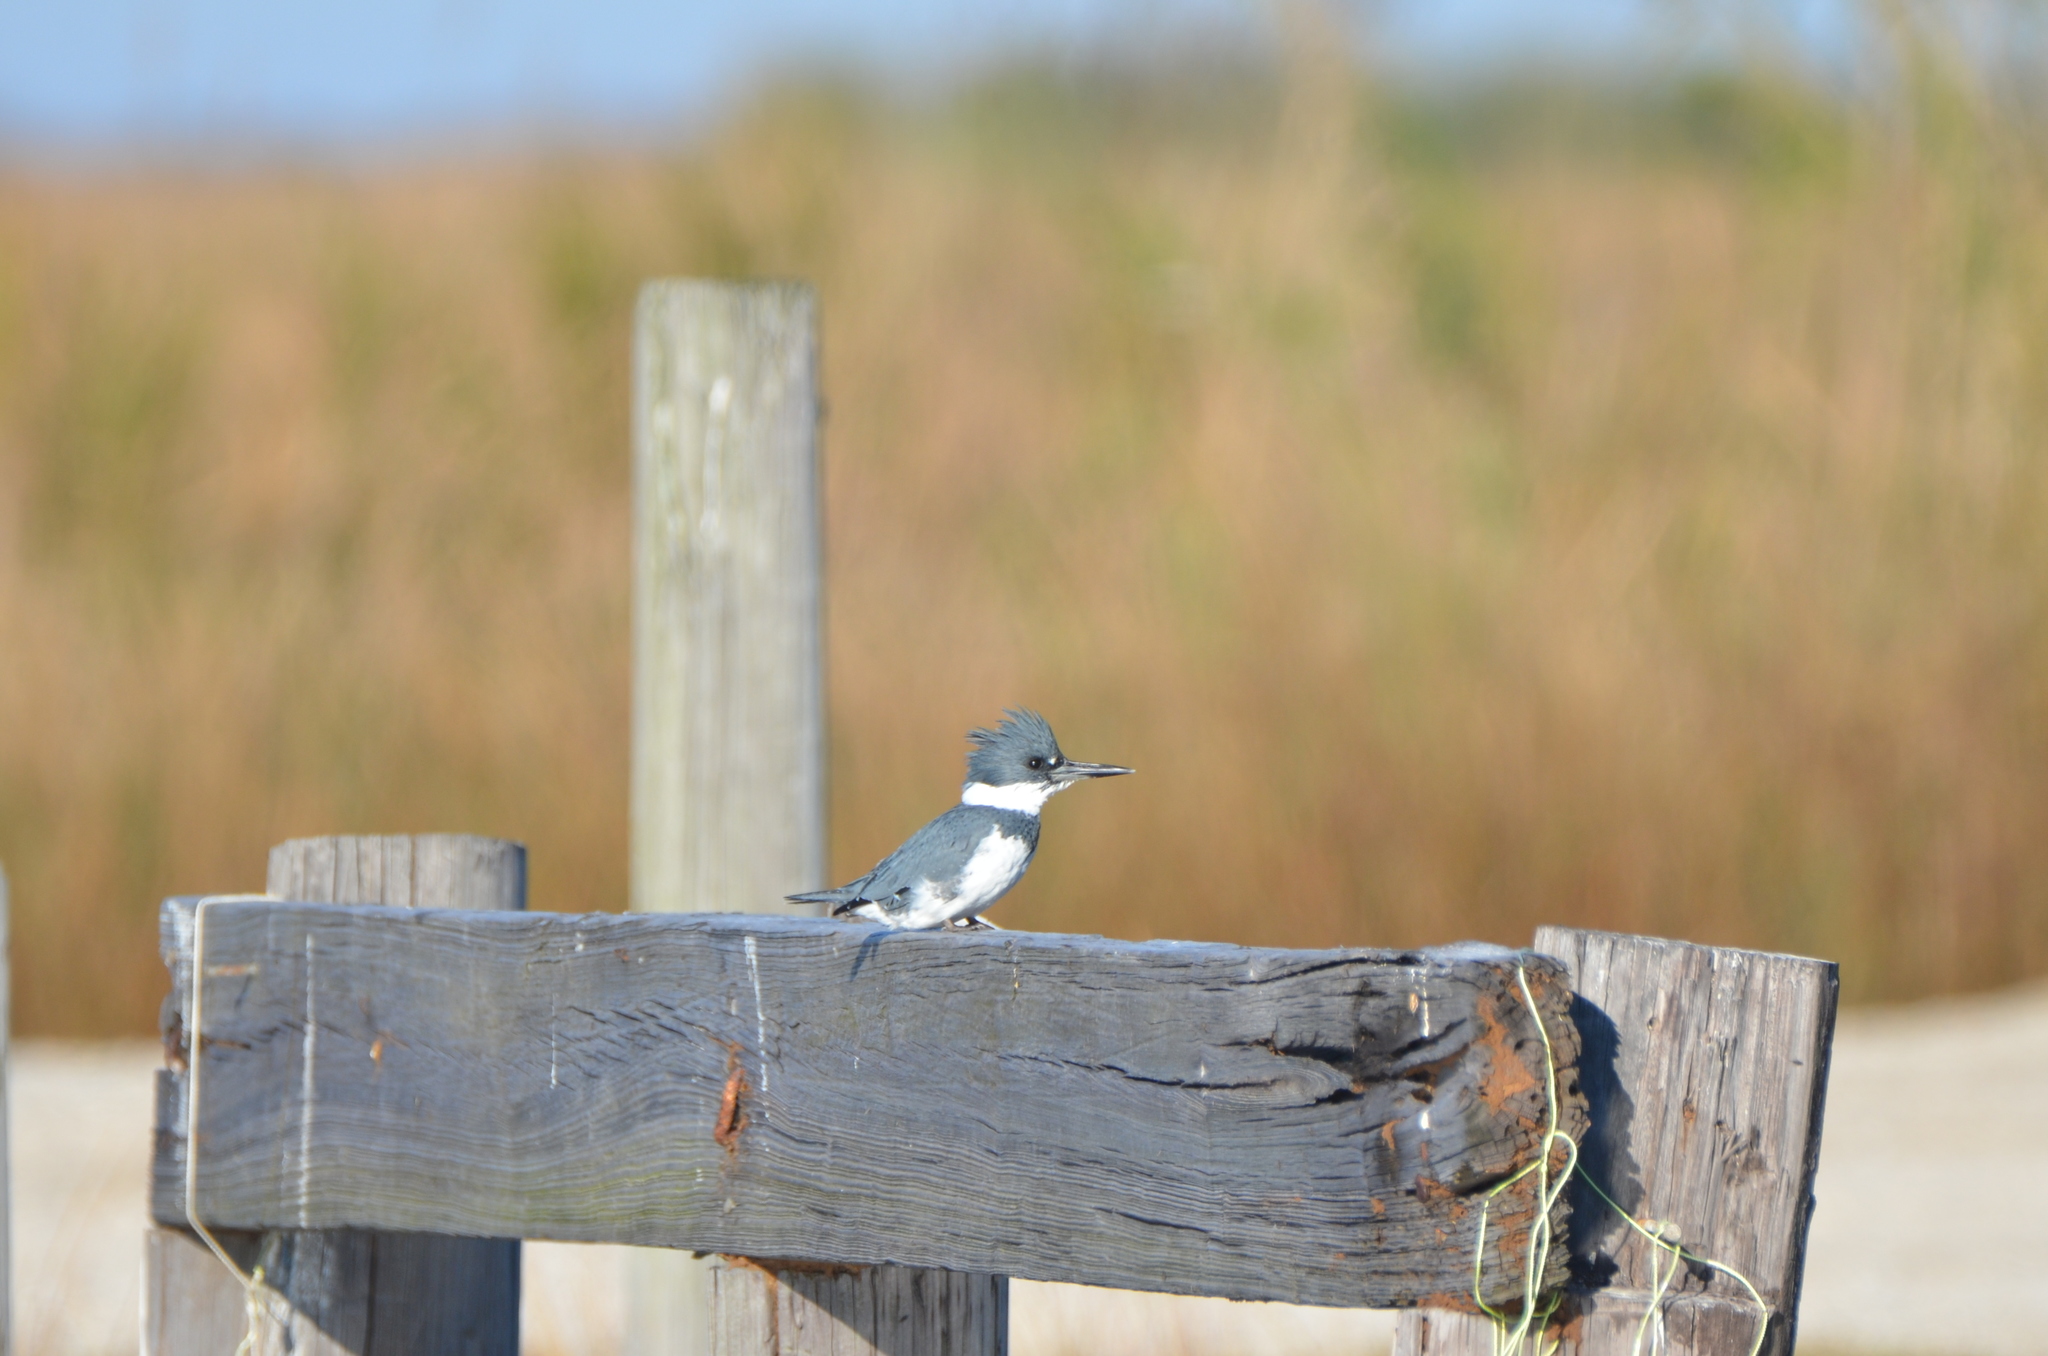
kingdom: Animalia
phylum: Chordata
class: Aves
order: Coraciiformes
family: Alcedinidae
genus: Megaceryle
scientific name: Megaceryle alcyon
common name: Belted kingfisher
